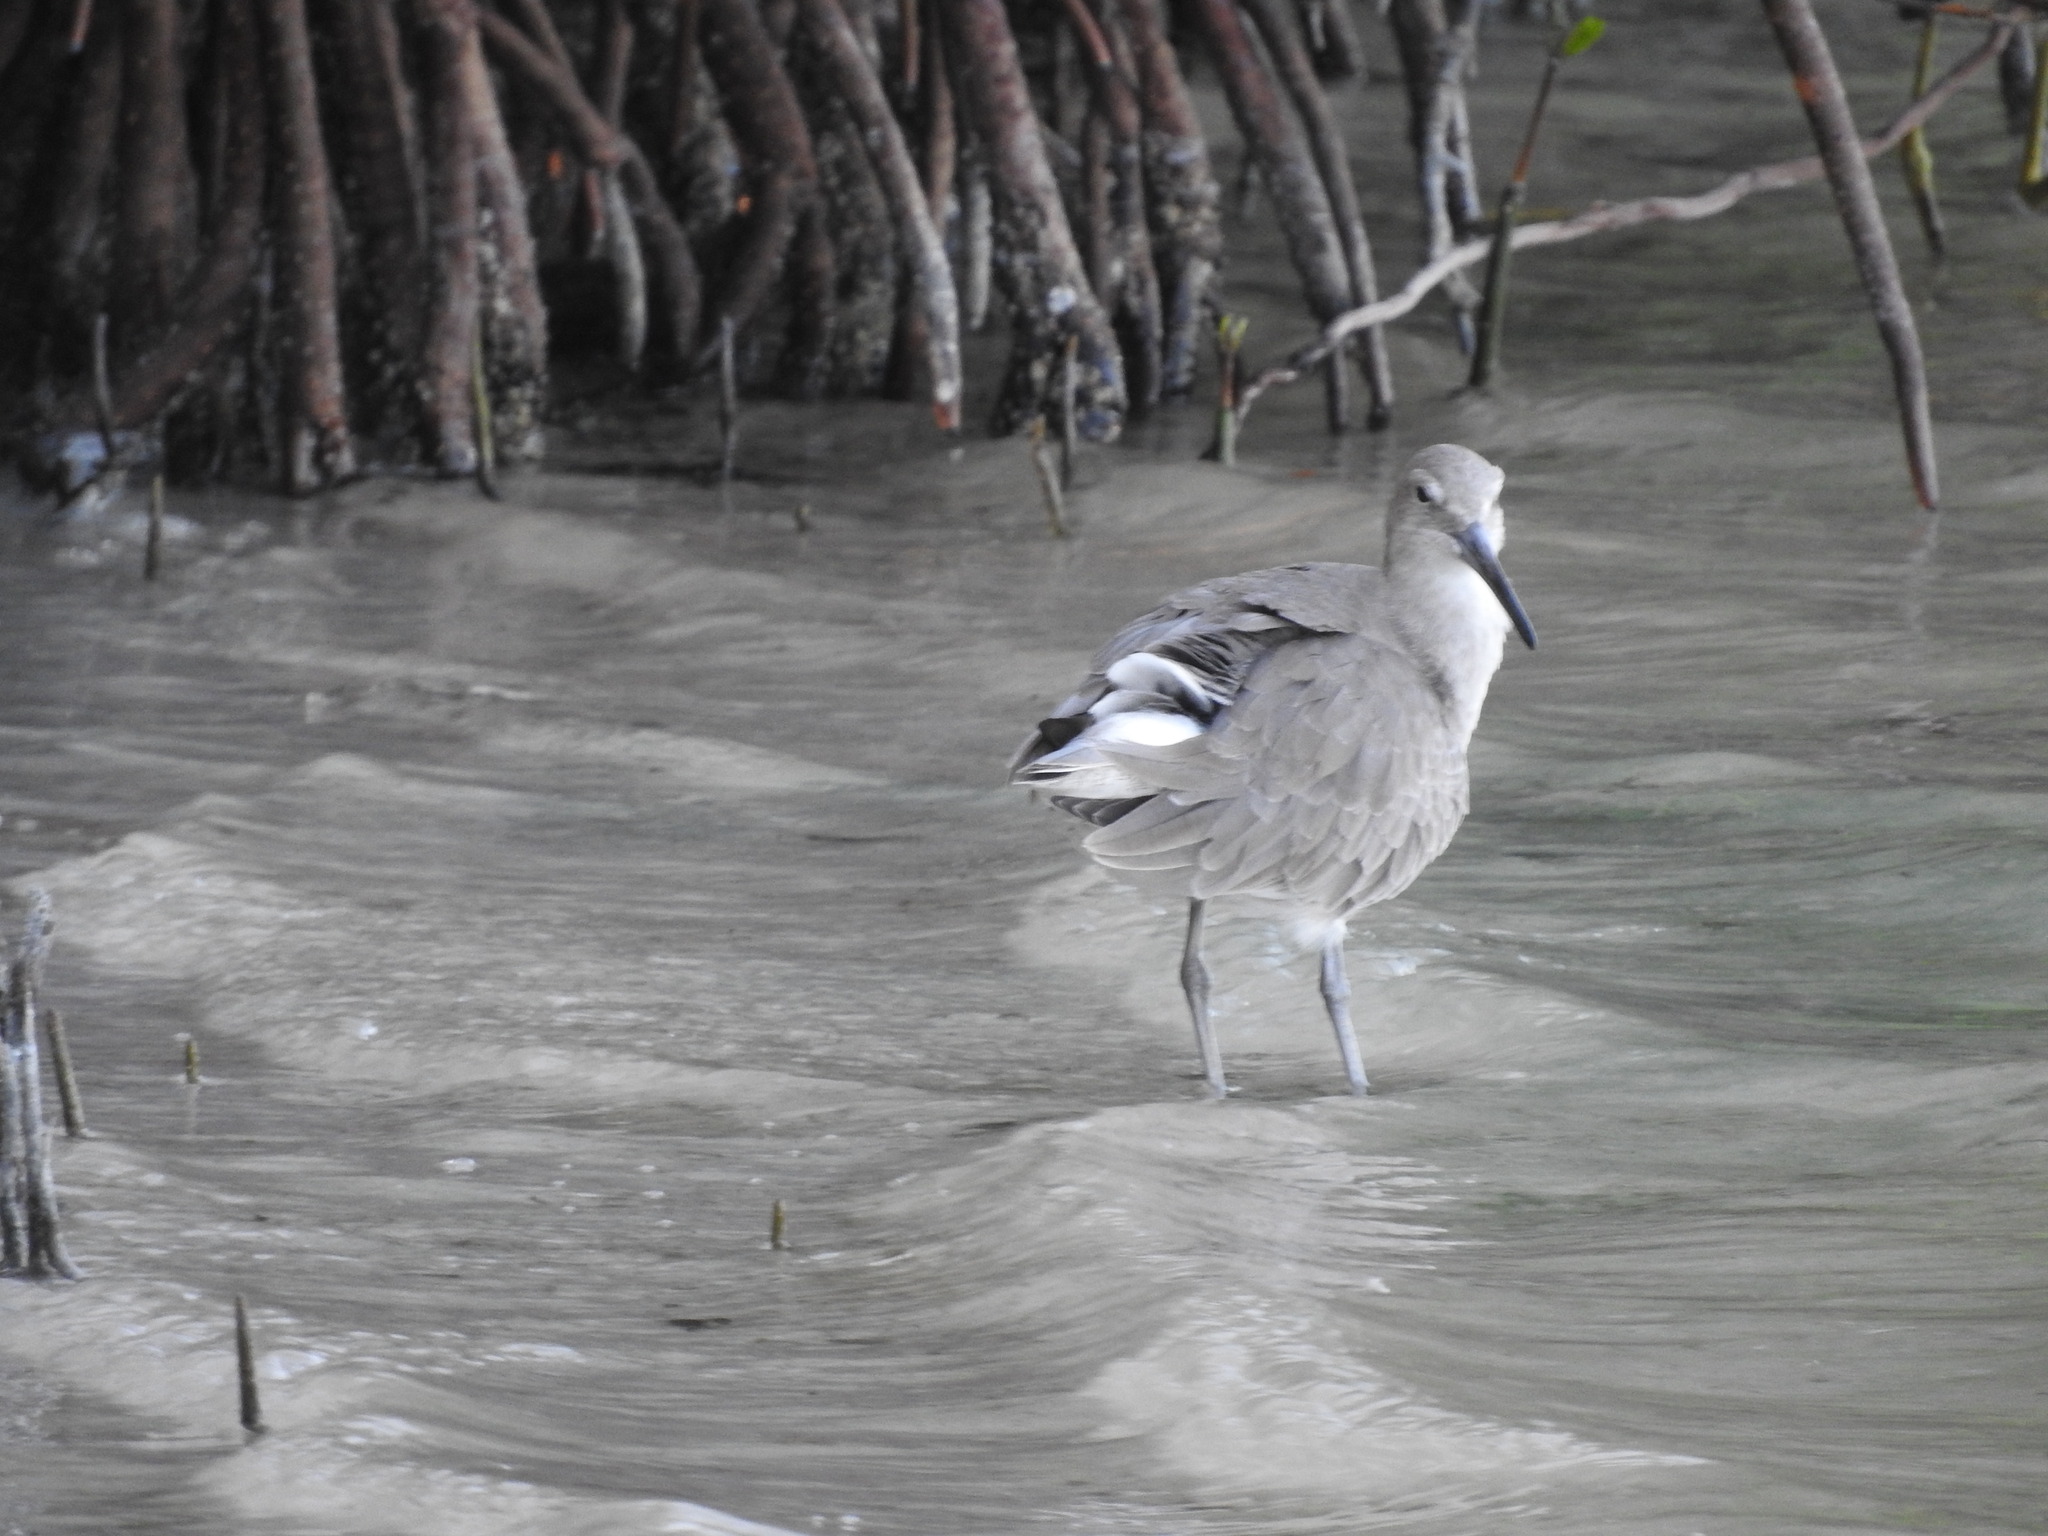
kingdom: Animalia
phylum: Chordata
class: Aves
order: Charadriiformes
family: Scolopacidae
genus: Tringa
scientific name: Tringa semipalmata
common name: Willet
